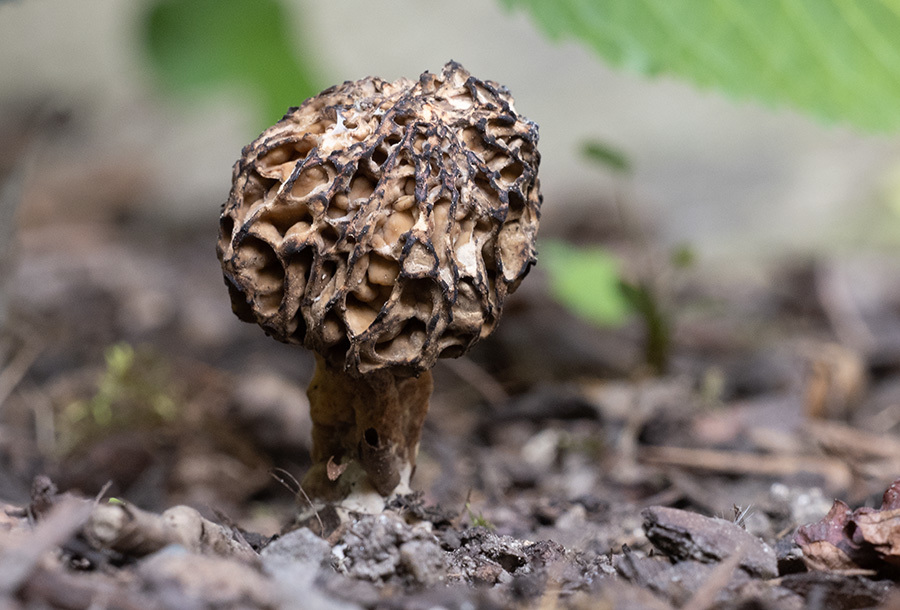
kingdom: Fungi
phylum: Ascomycota
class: Pezizomycetes
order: Pezizales
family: Morchellaceae
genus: Morchella
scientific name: Morchella esculenta
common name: Morel
